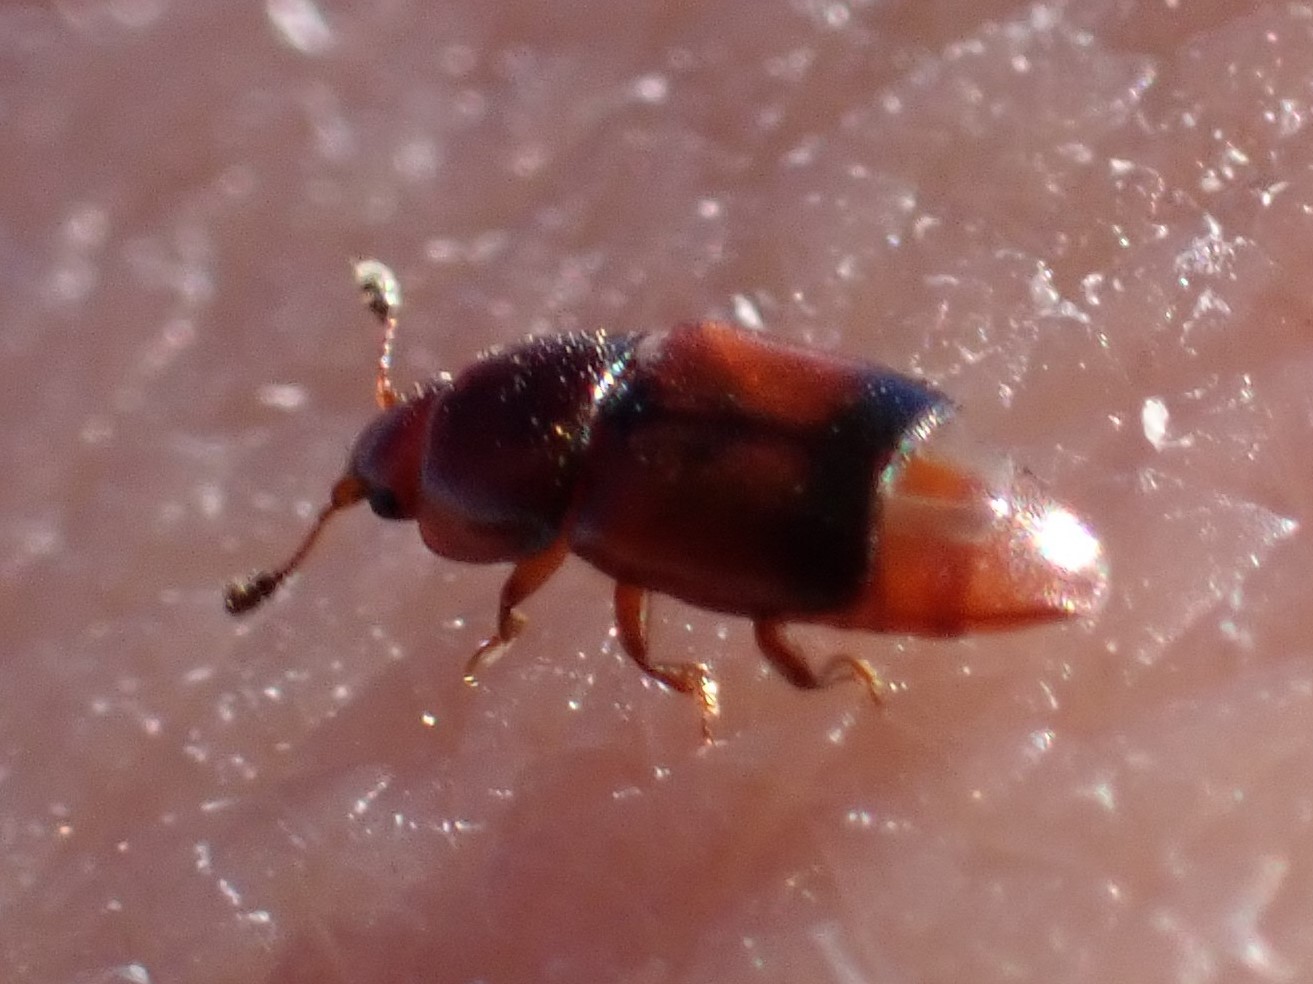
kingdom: Animalia
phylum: Arthropoda
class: Insecta
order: Coleoptera
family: Nitidulidae
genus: Carpophilus
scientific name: Carpophilus antiquus
